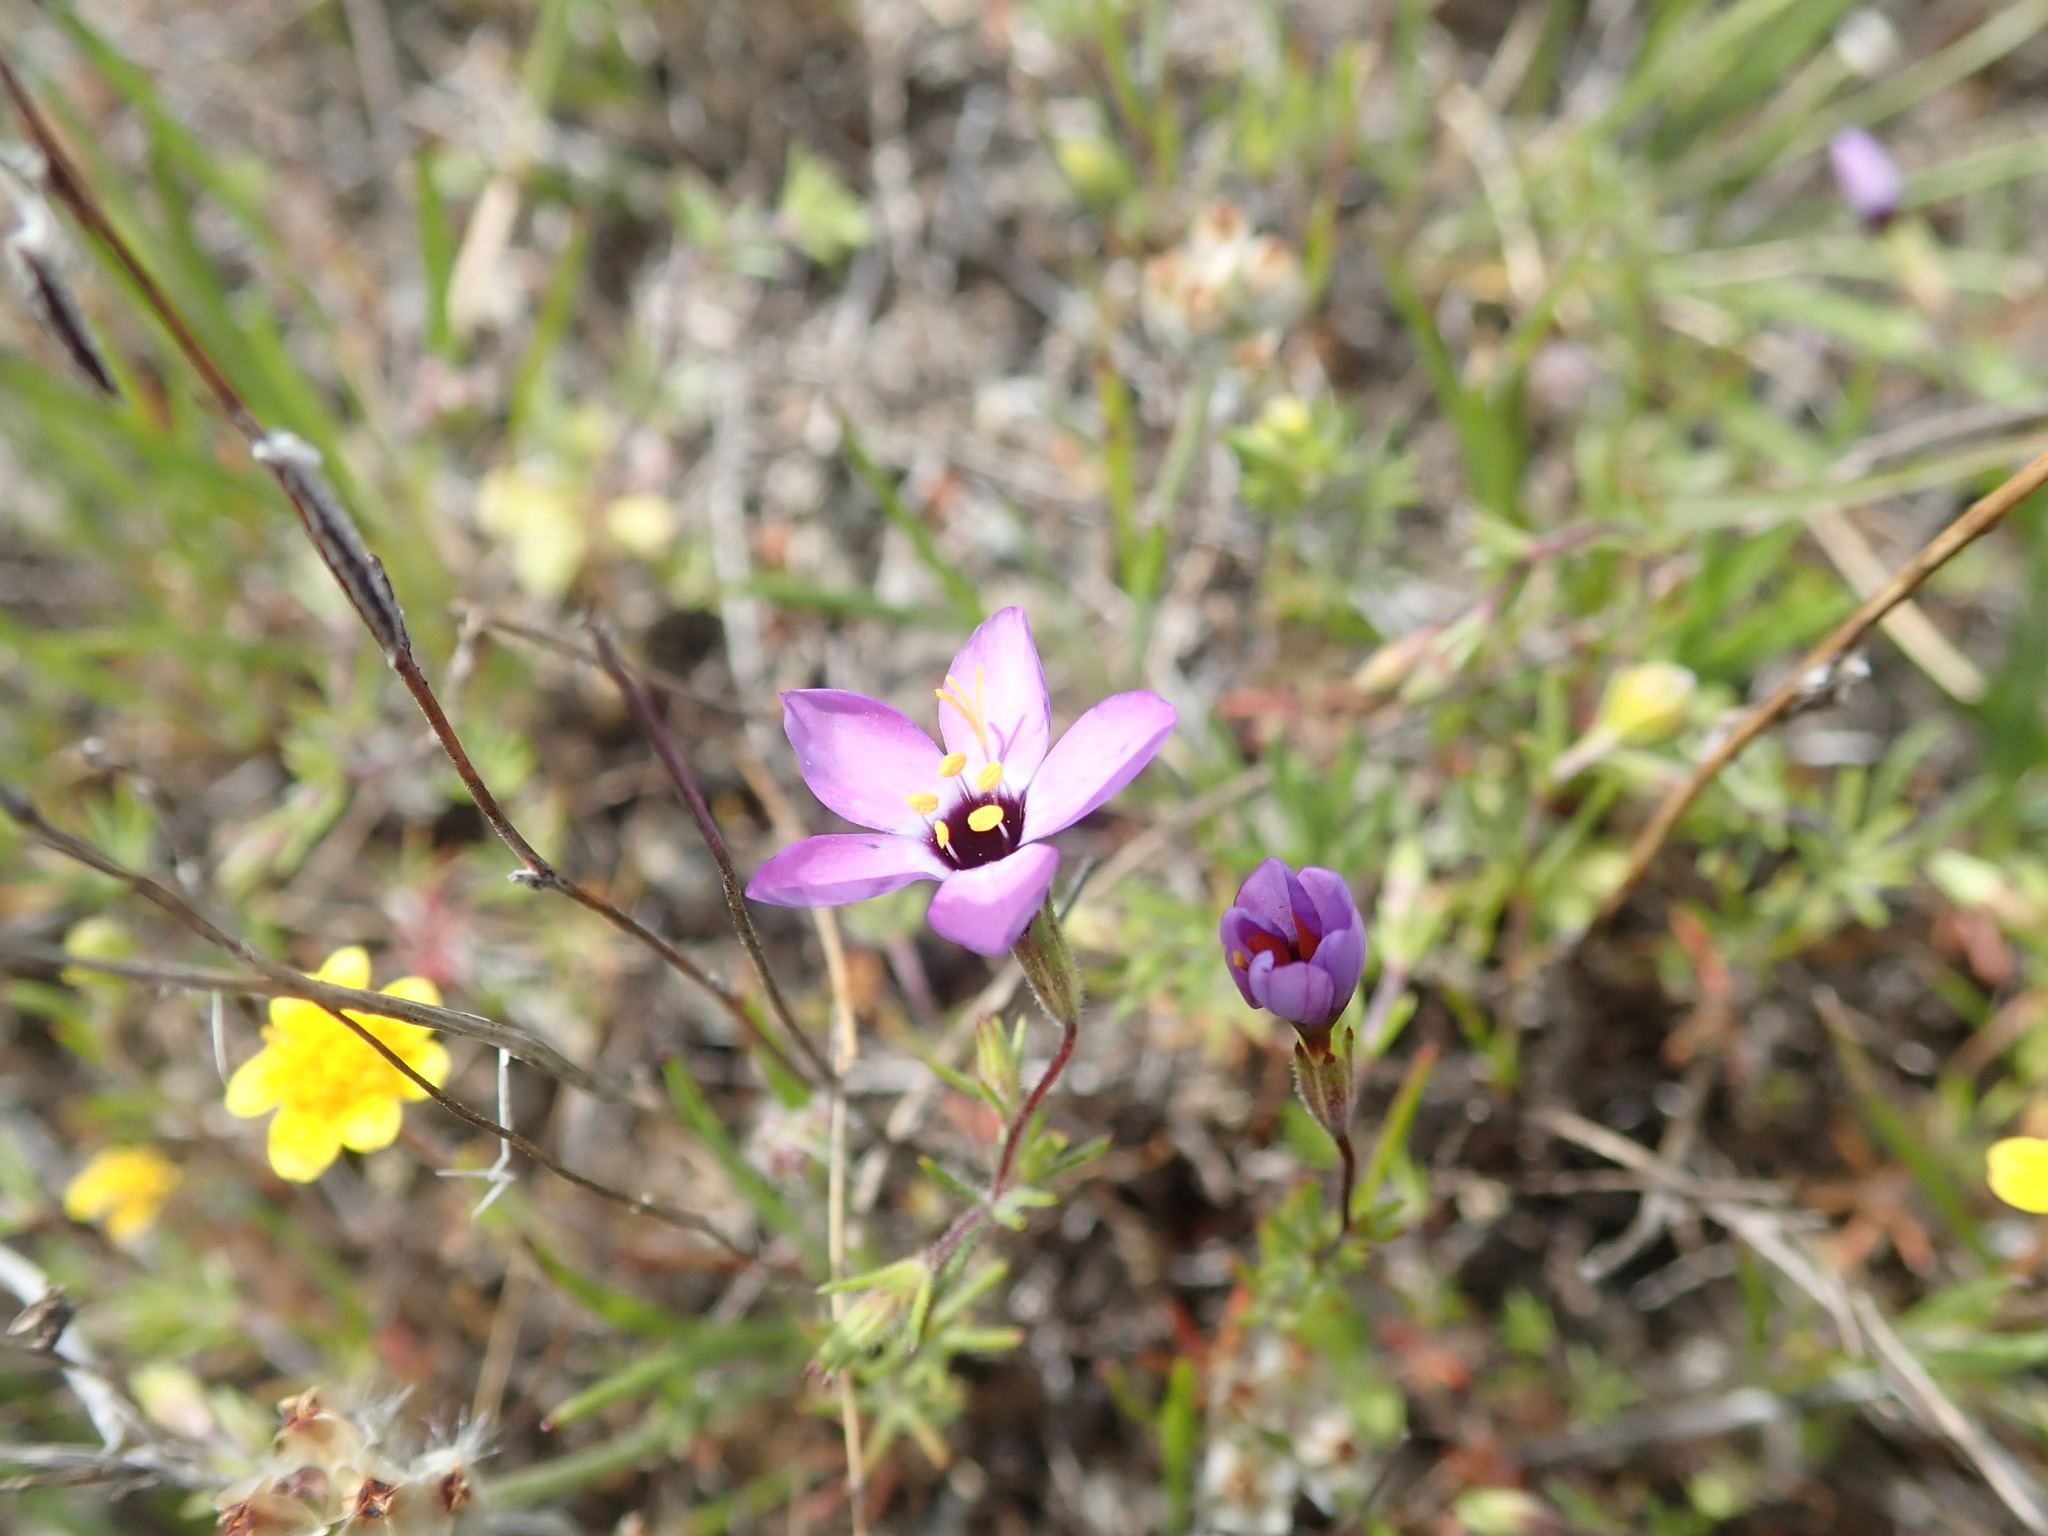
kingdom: Plantae
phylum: Tracheophyta
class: Magnoliopsida
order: Ericales
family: Polemoniaceae
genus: Leptosiphon
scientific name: Leptosiphon ambiguus
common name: Serpentine linanthus
